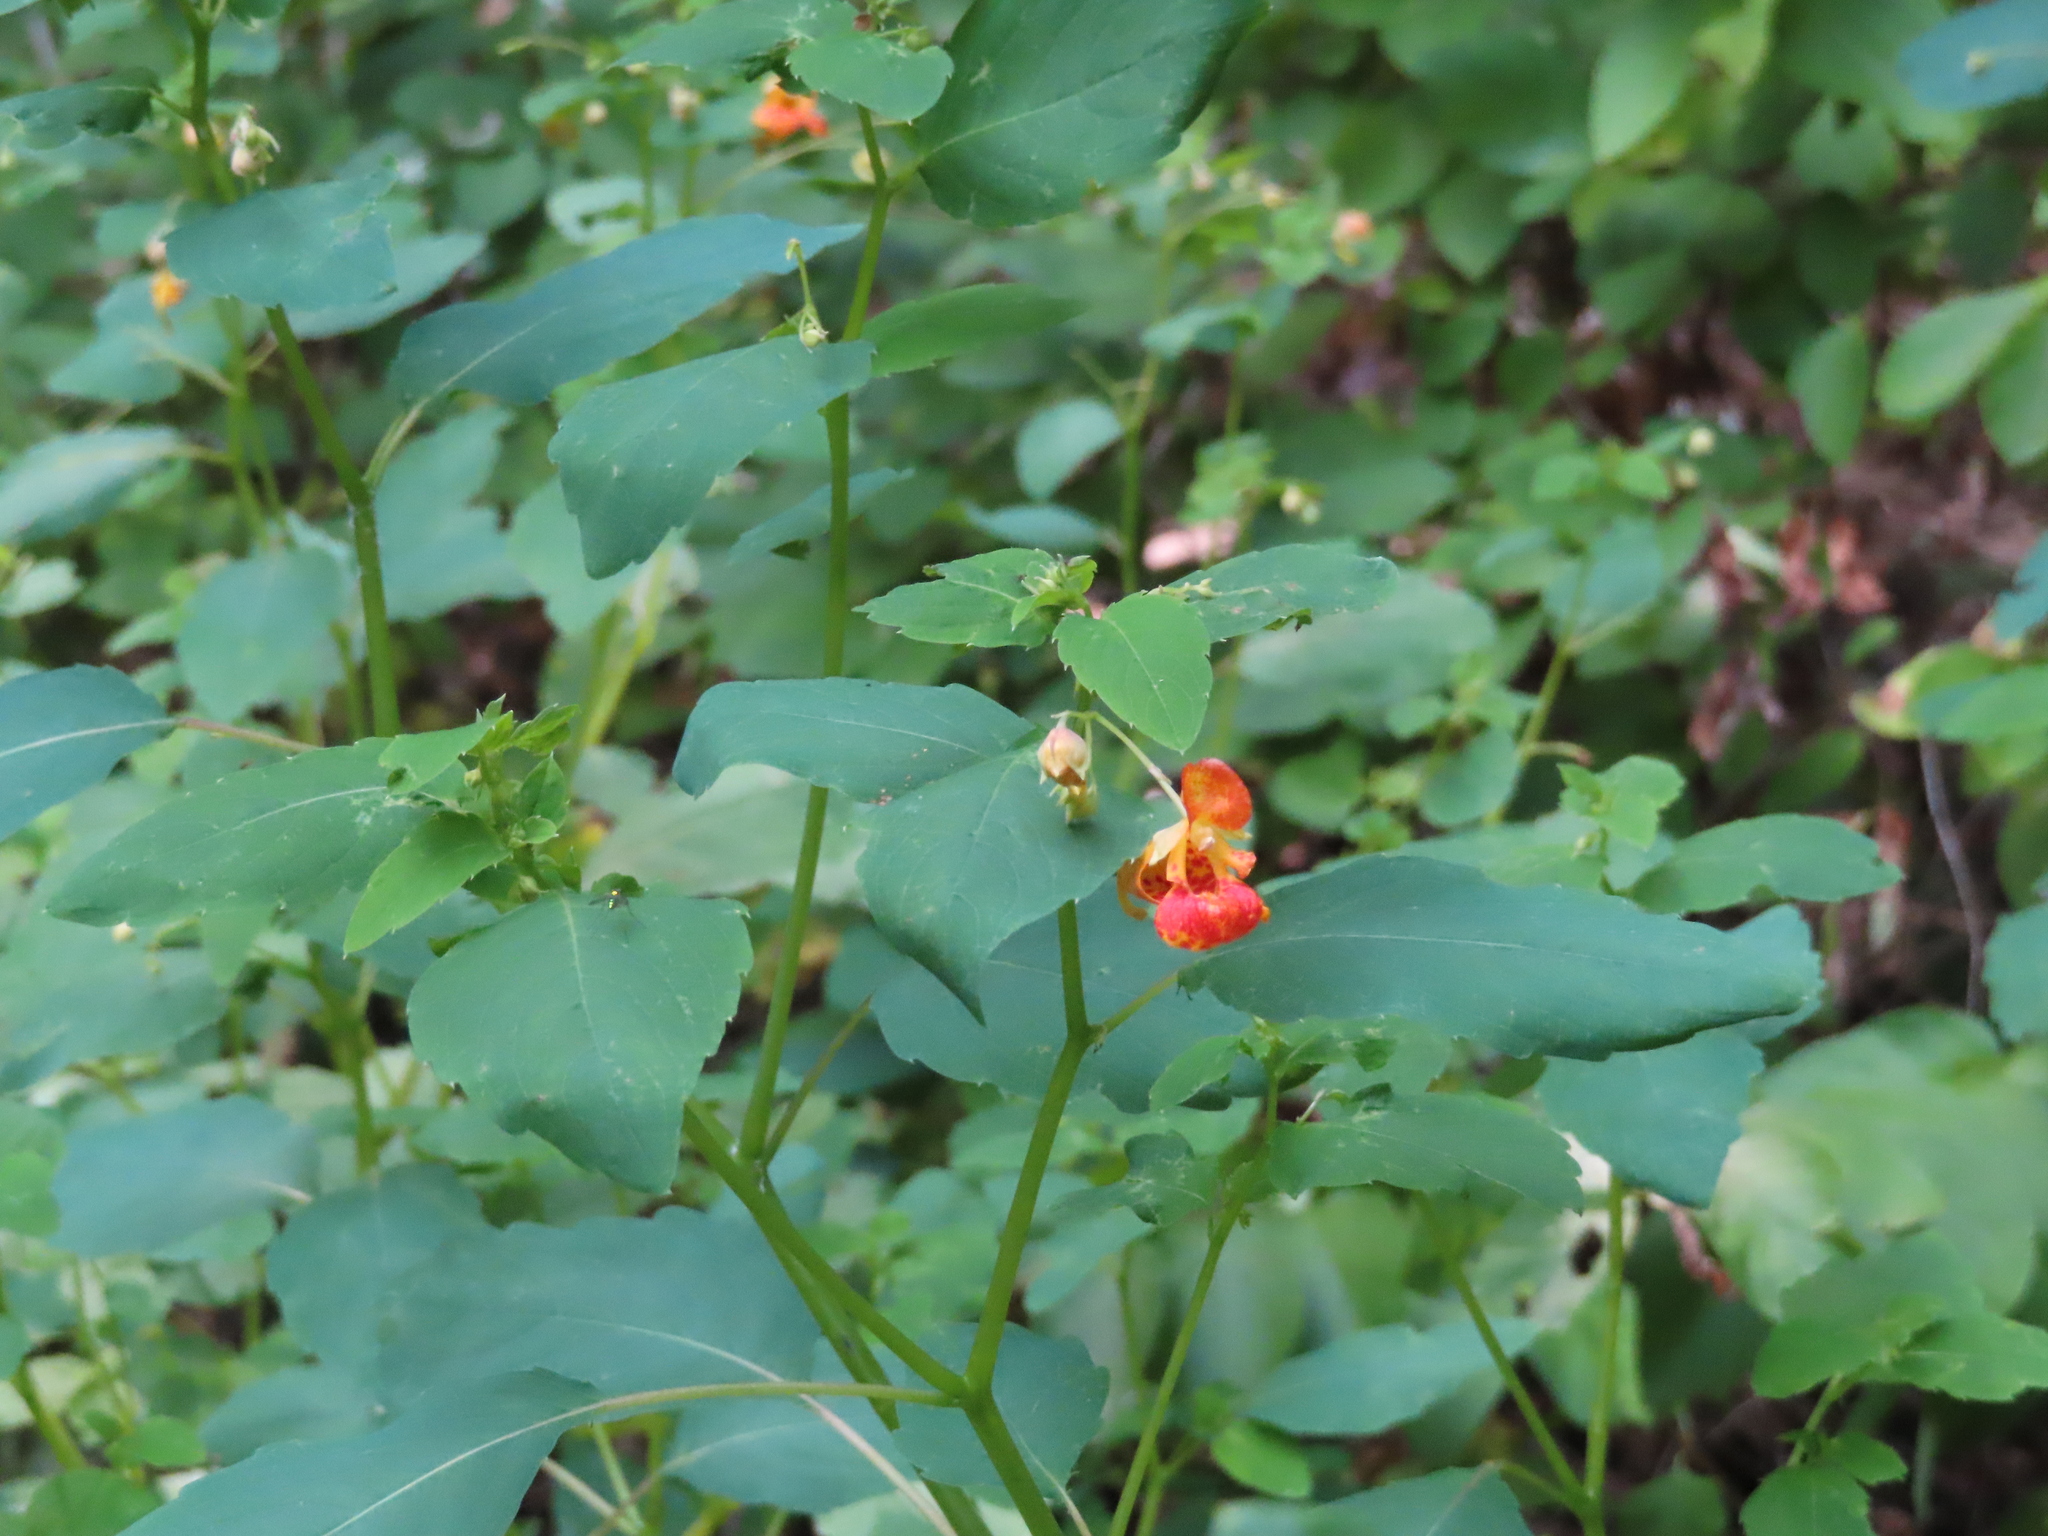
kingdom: Plantae
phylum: Tracheophyta
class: Magnoliopsida
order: Ericales
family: Balsaminaceae
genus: Impatiens
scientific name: Impatiens capensis
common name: Orange balsam
